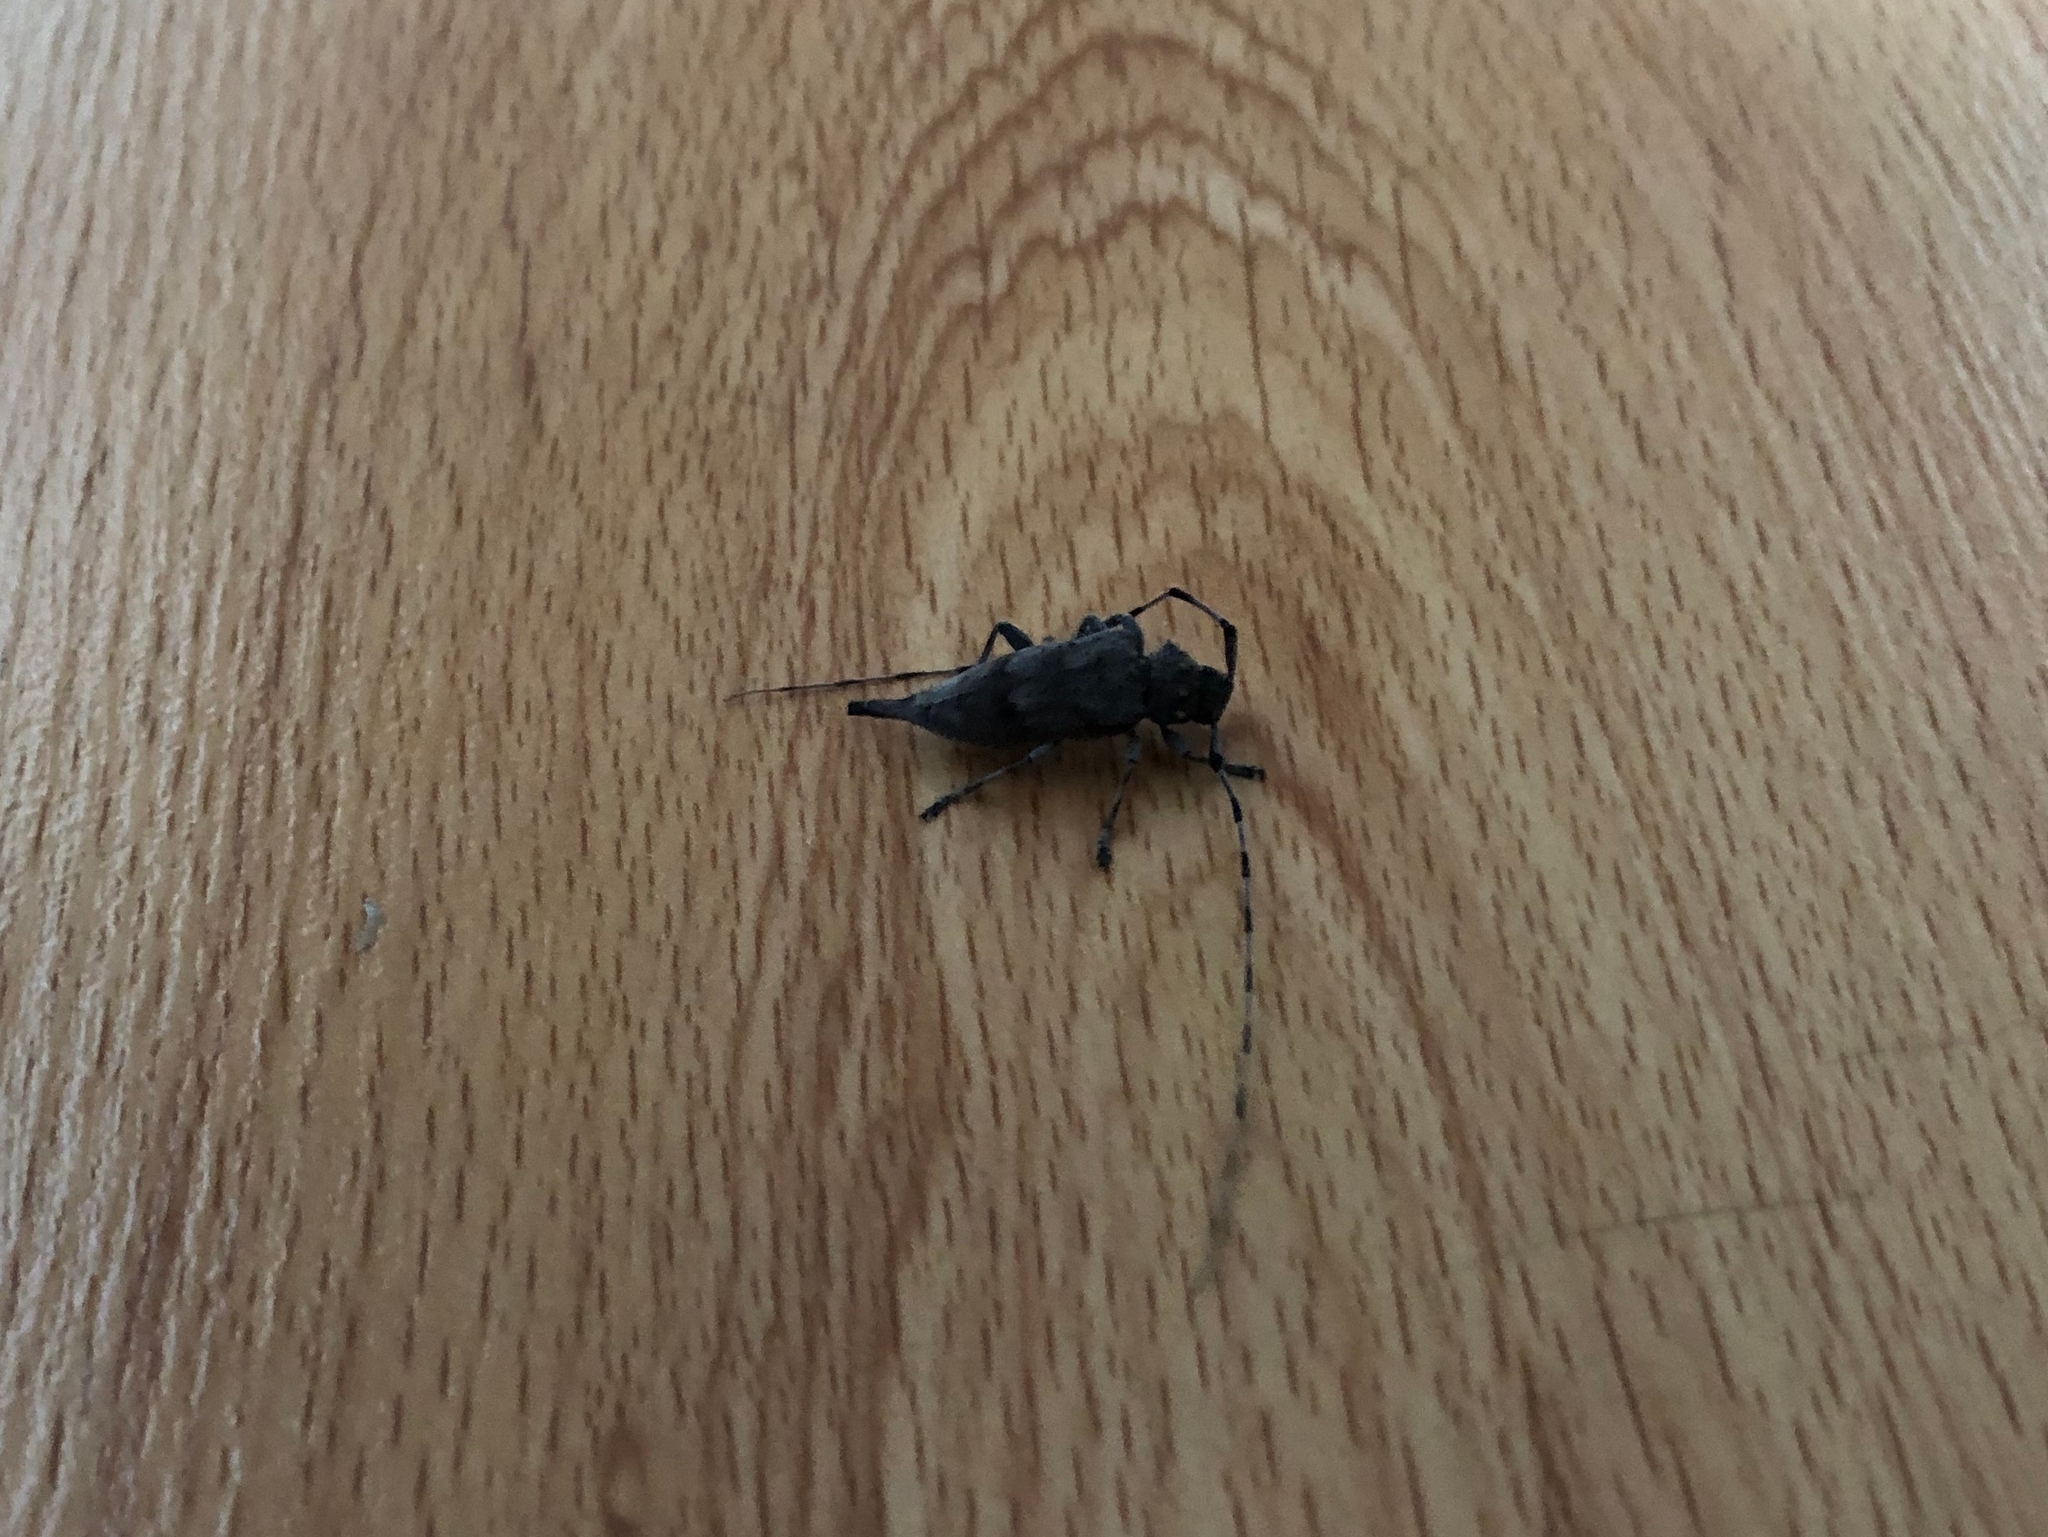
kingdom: Animalia
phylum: Arthropoda
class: Insecta
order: Coleoptera
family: Cerambycidae
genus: Acanthocinus
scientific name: Acanthocinus aedilis
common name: Timberman beetle
